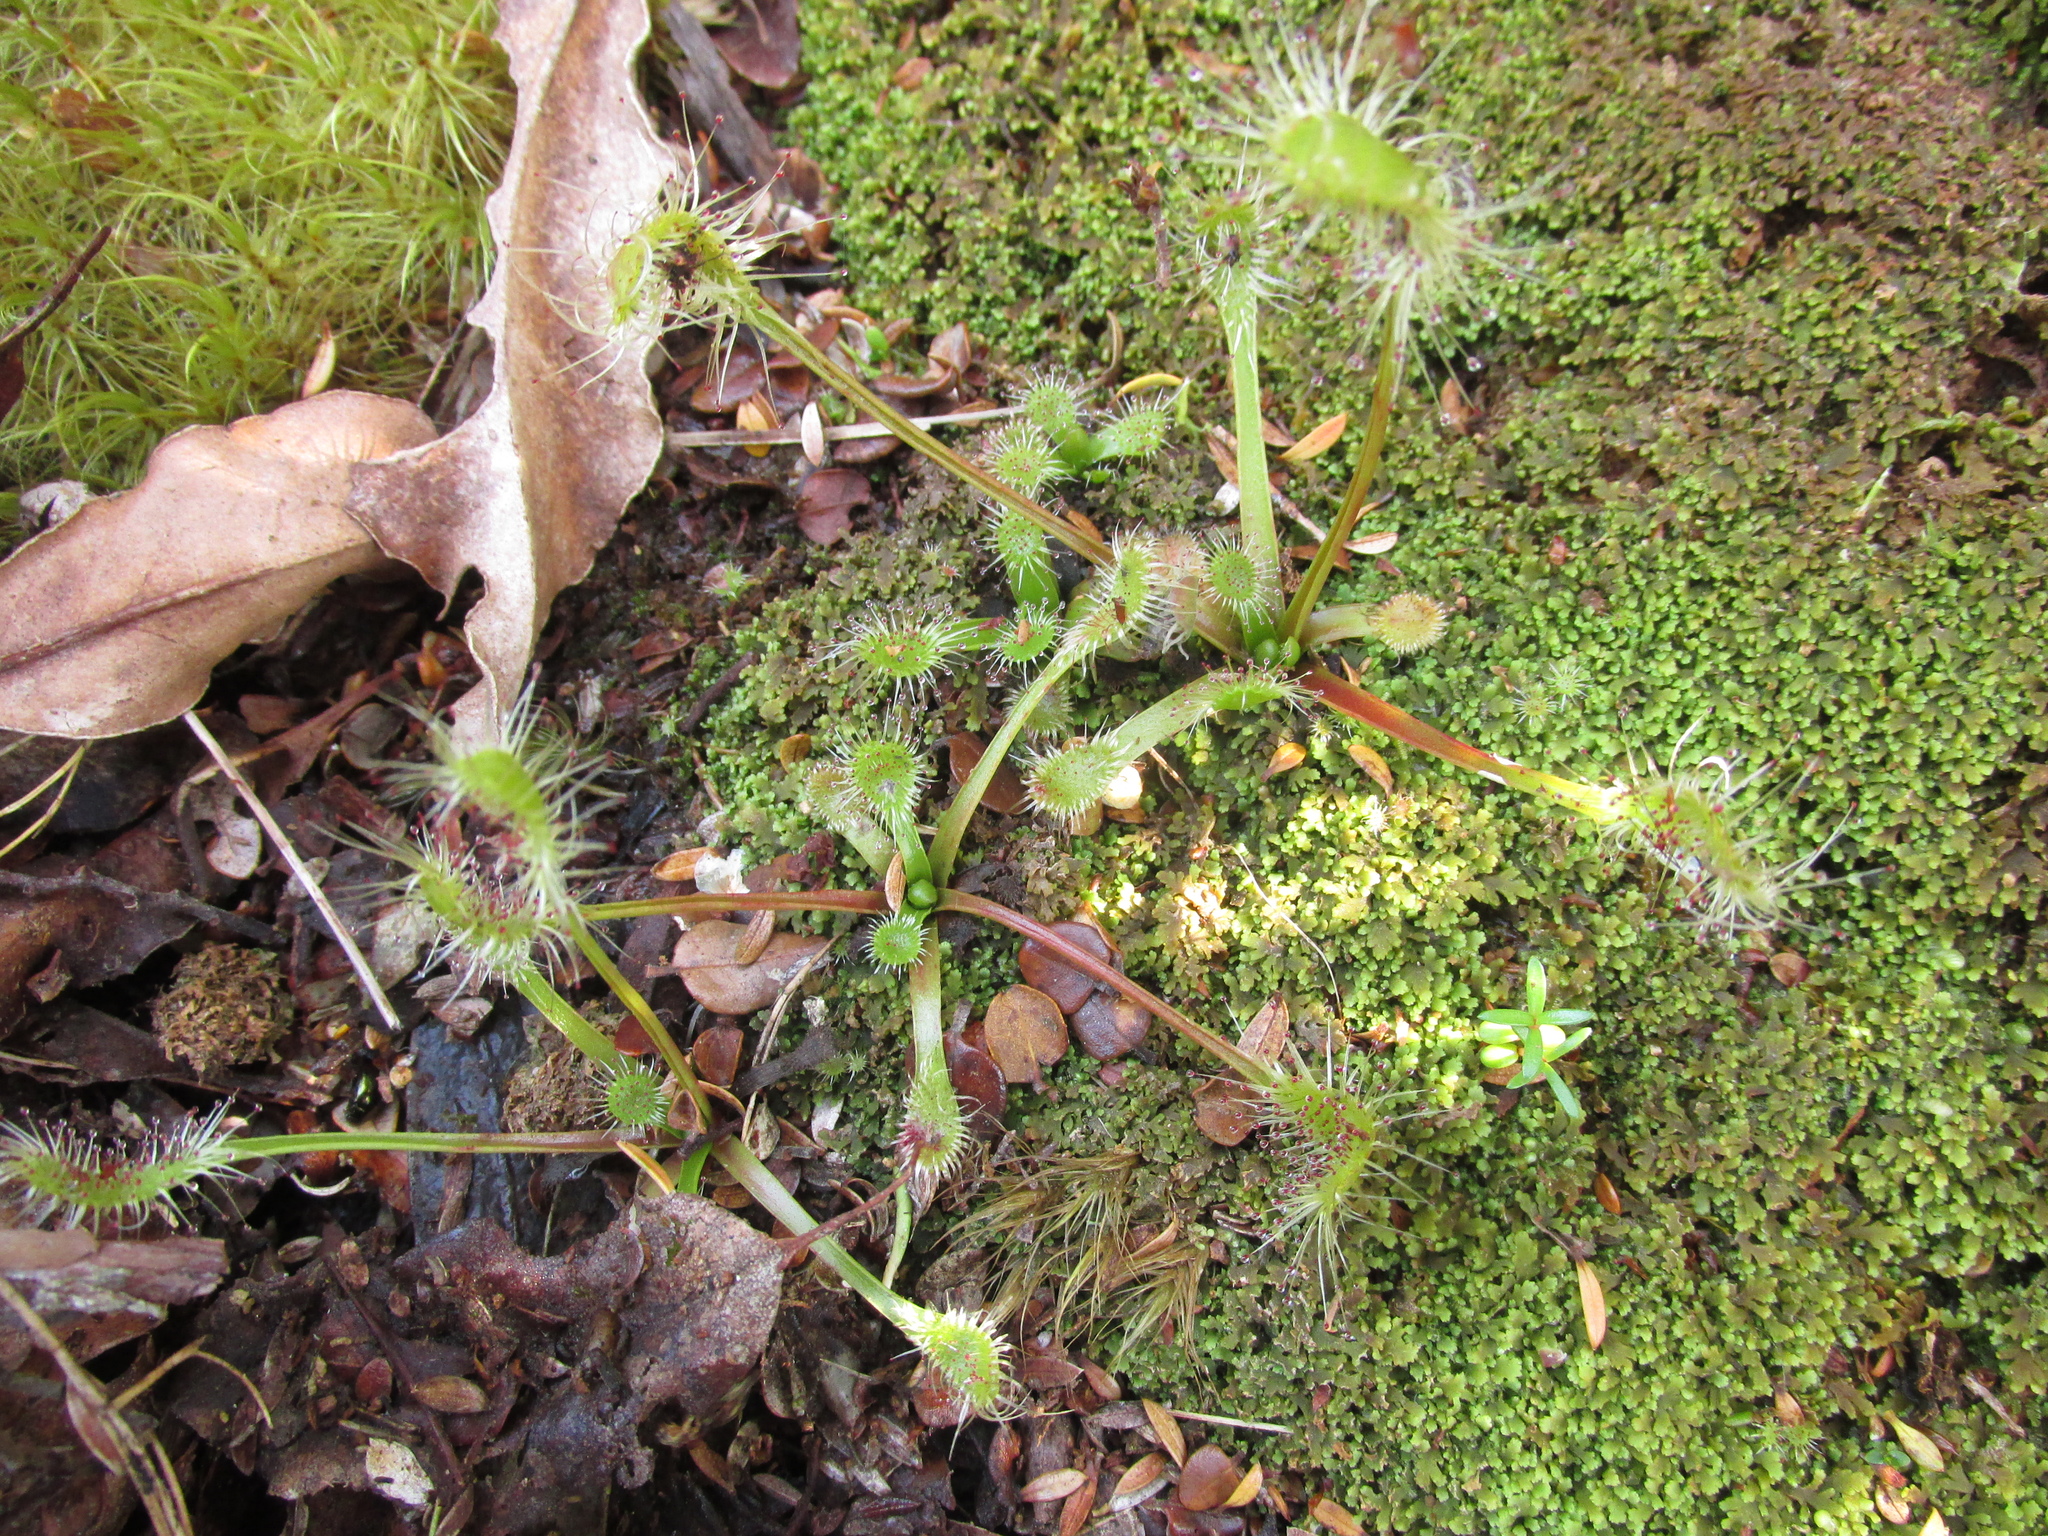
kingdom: Plantae
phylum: Tracheophyta
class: Magnoliopsida
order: Caryophyllales
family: Droseraceae
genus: Drosera
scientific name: Drosera stenopetala
